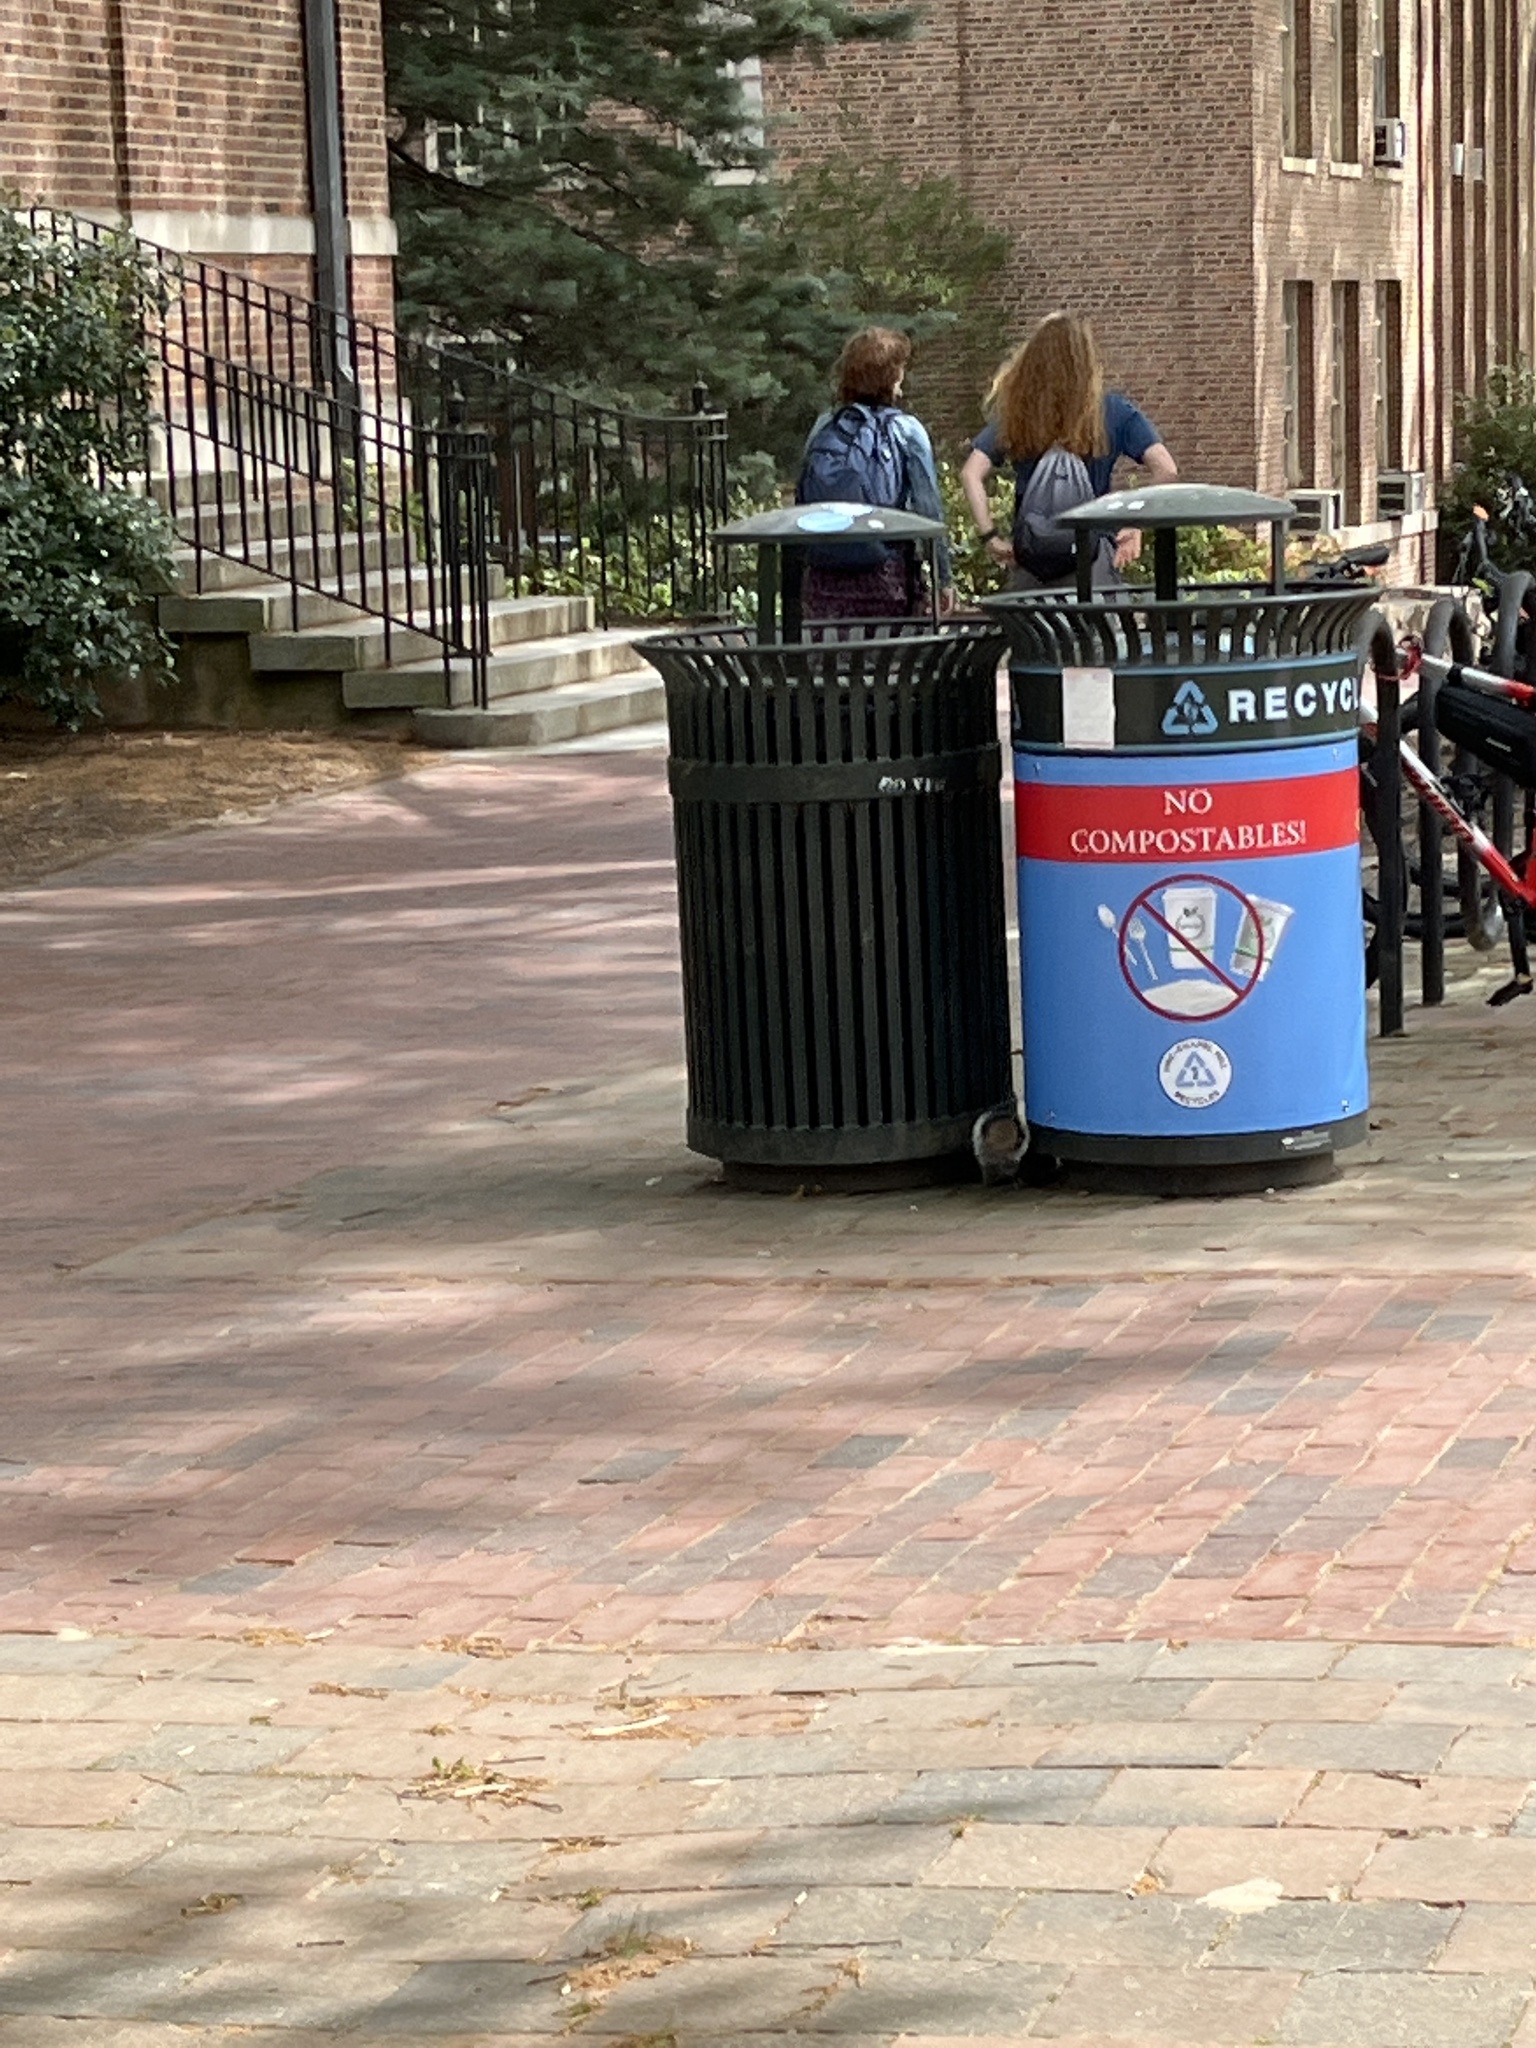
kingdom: Animalia
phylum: Chordata
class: Mammalia
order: Rodentia
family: Sciuridae
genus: Sciurus
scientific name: Sciurus carolinensis
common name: Eastern gray squirrel
